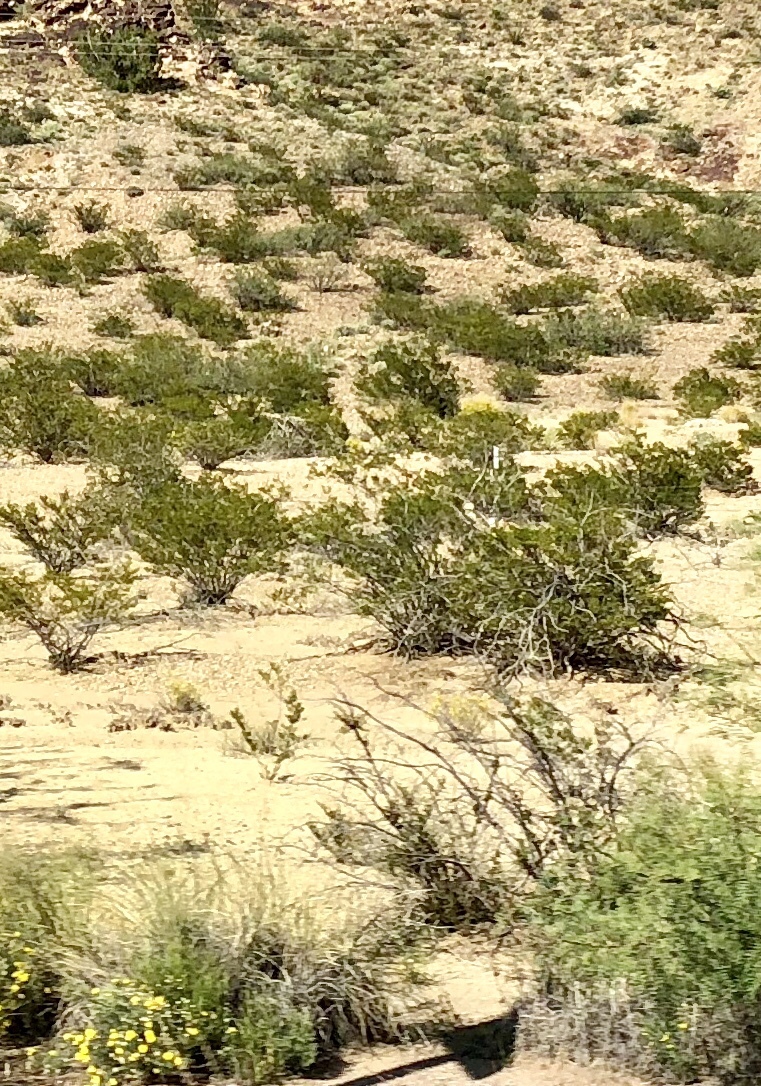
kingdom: Plantae
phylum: Tracheophyta
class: Magnoliopsida
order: Zygophyllales
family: Zygophyllaceae
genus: Larrea
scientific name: Larrea tridentata
